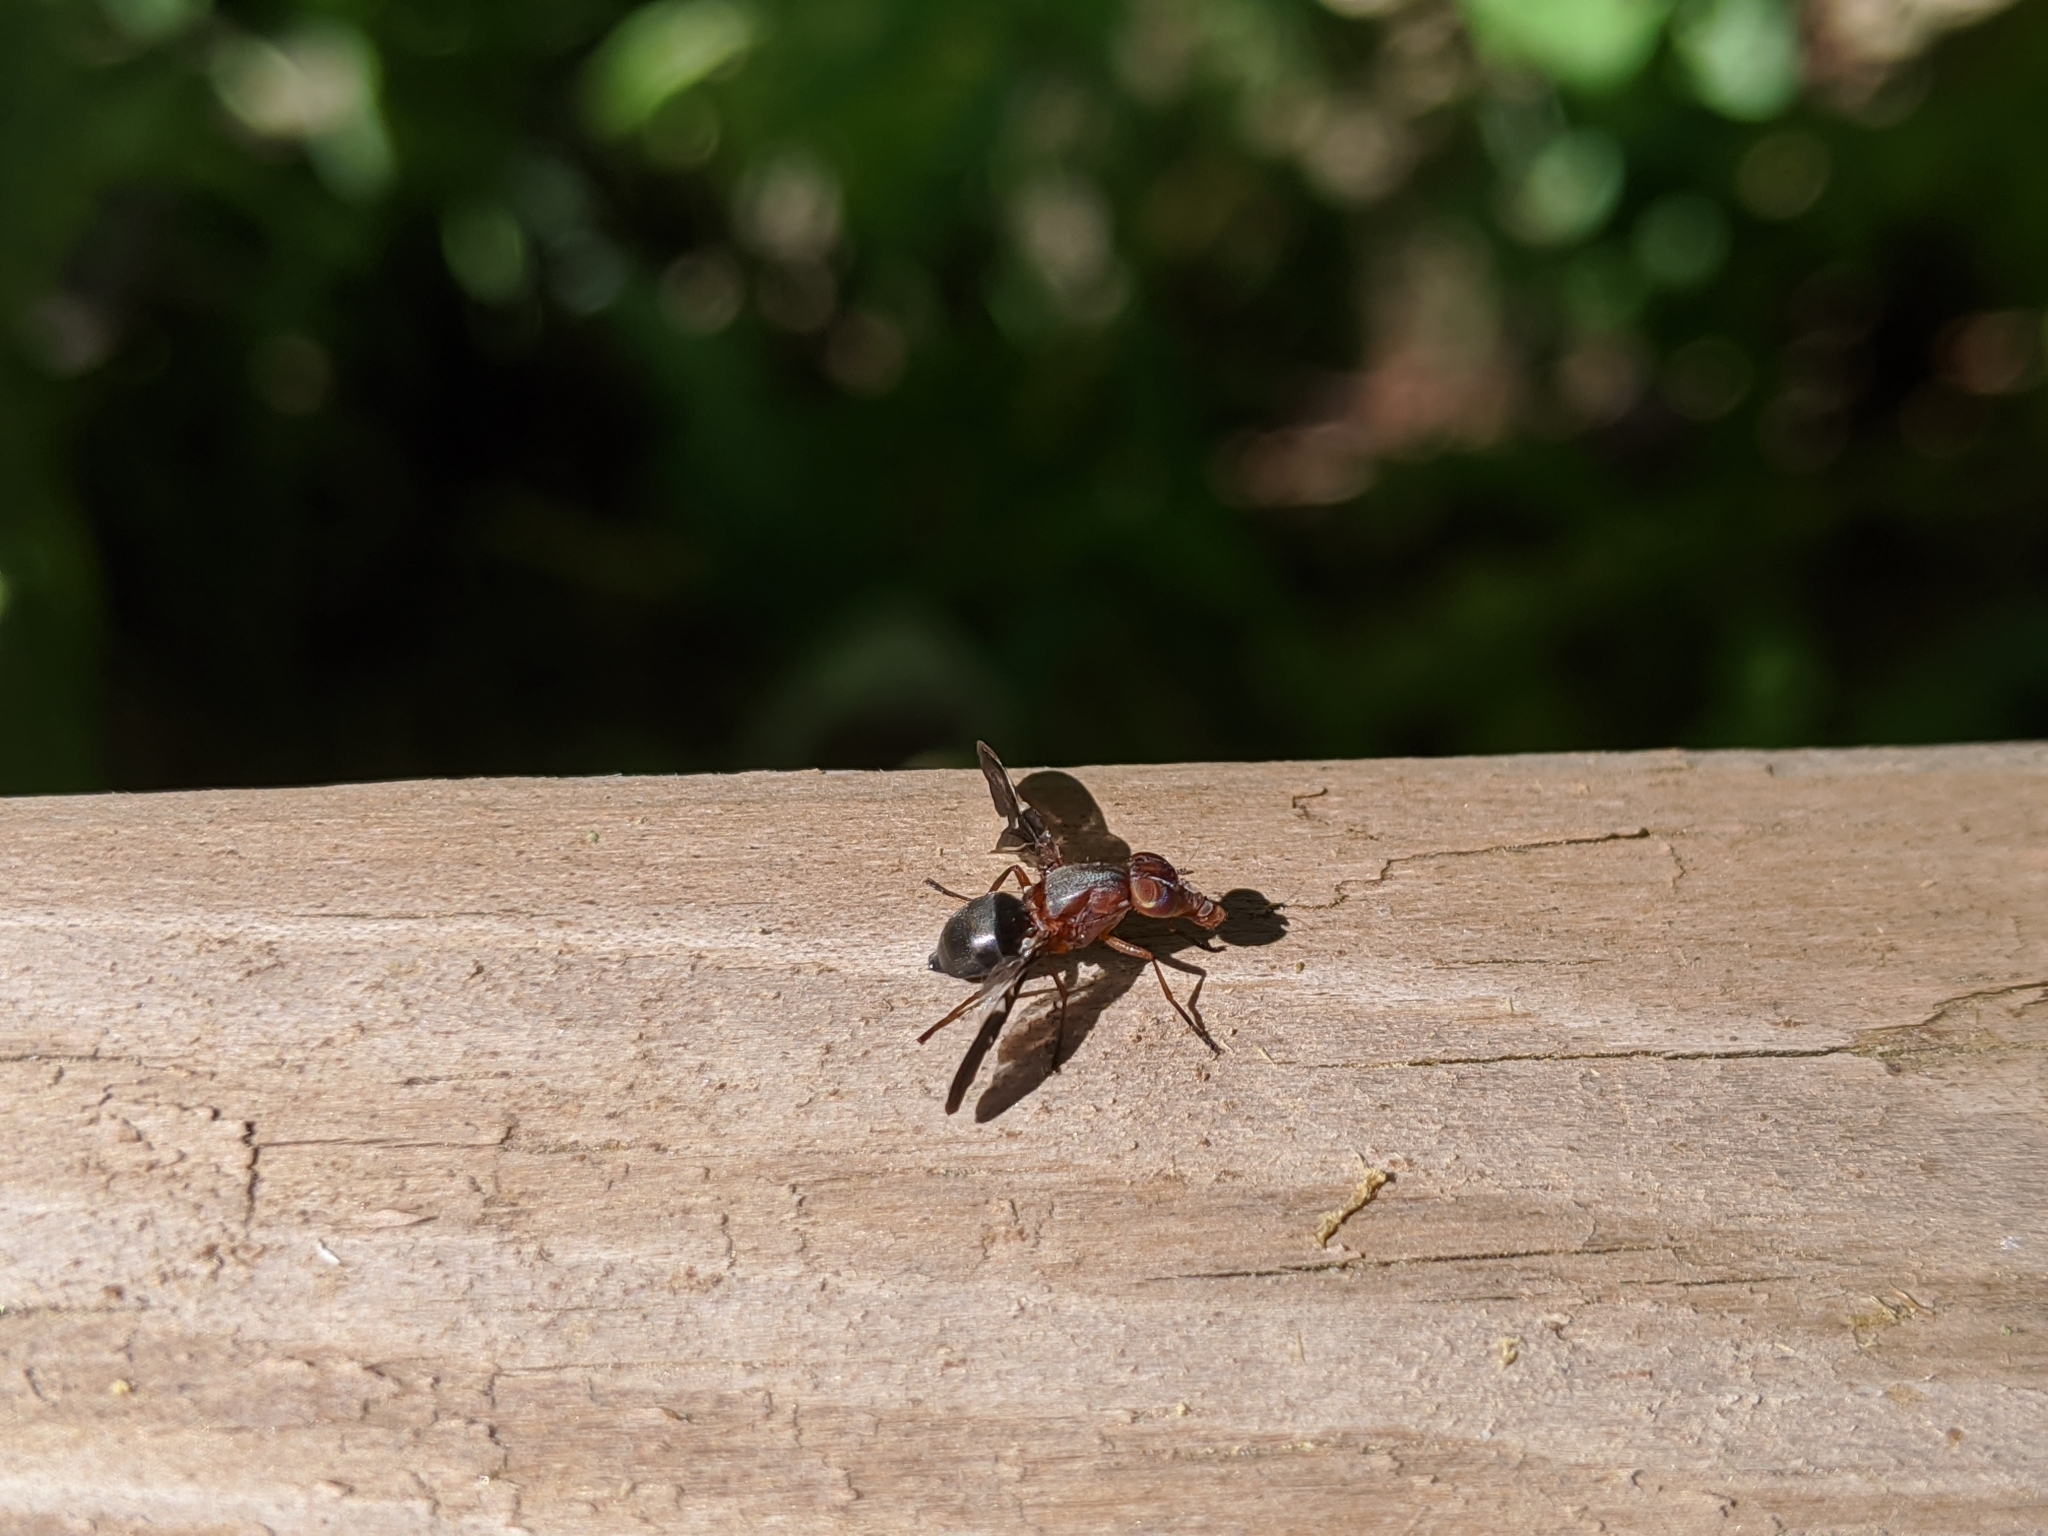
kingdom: Animalia
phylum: Arthropoda
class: Insecta
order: Diptera
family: Ulidiidae
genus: Delphinia
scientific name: Delphinia picta
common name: Common picture-winged fly
